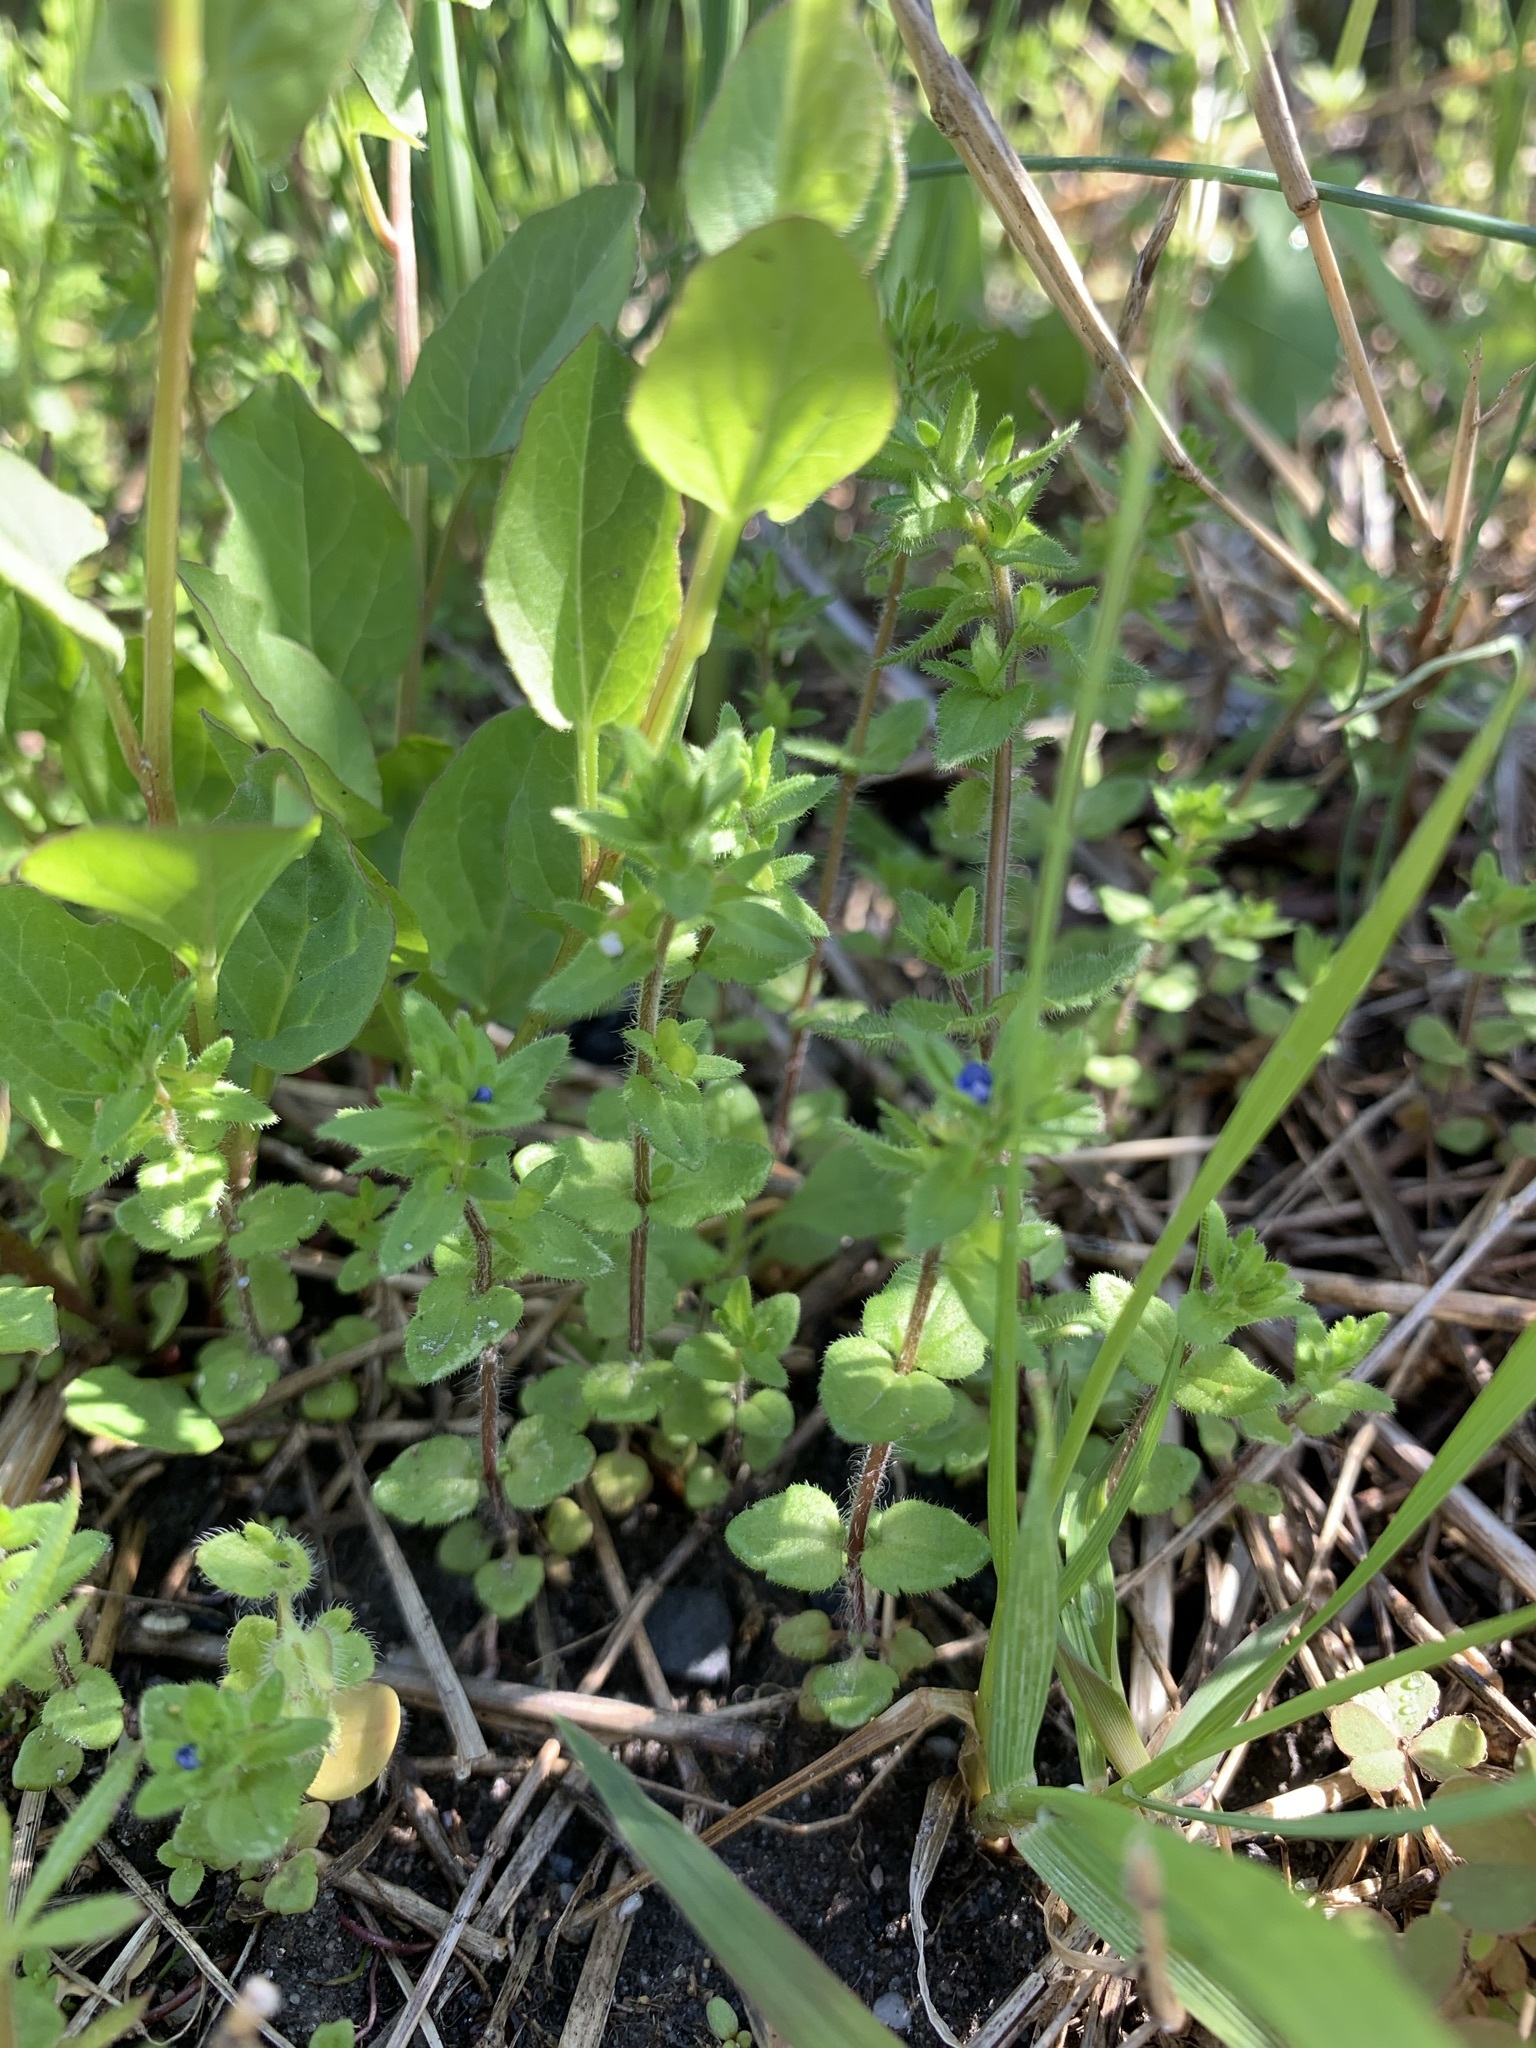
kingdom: Plantae
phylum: Tracheophyta
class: Magnoliopsida
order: Lamiales
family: Plantaginaceae
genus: Veronica
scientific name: Veronica arvensis
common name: Corn speedwell
